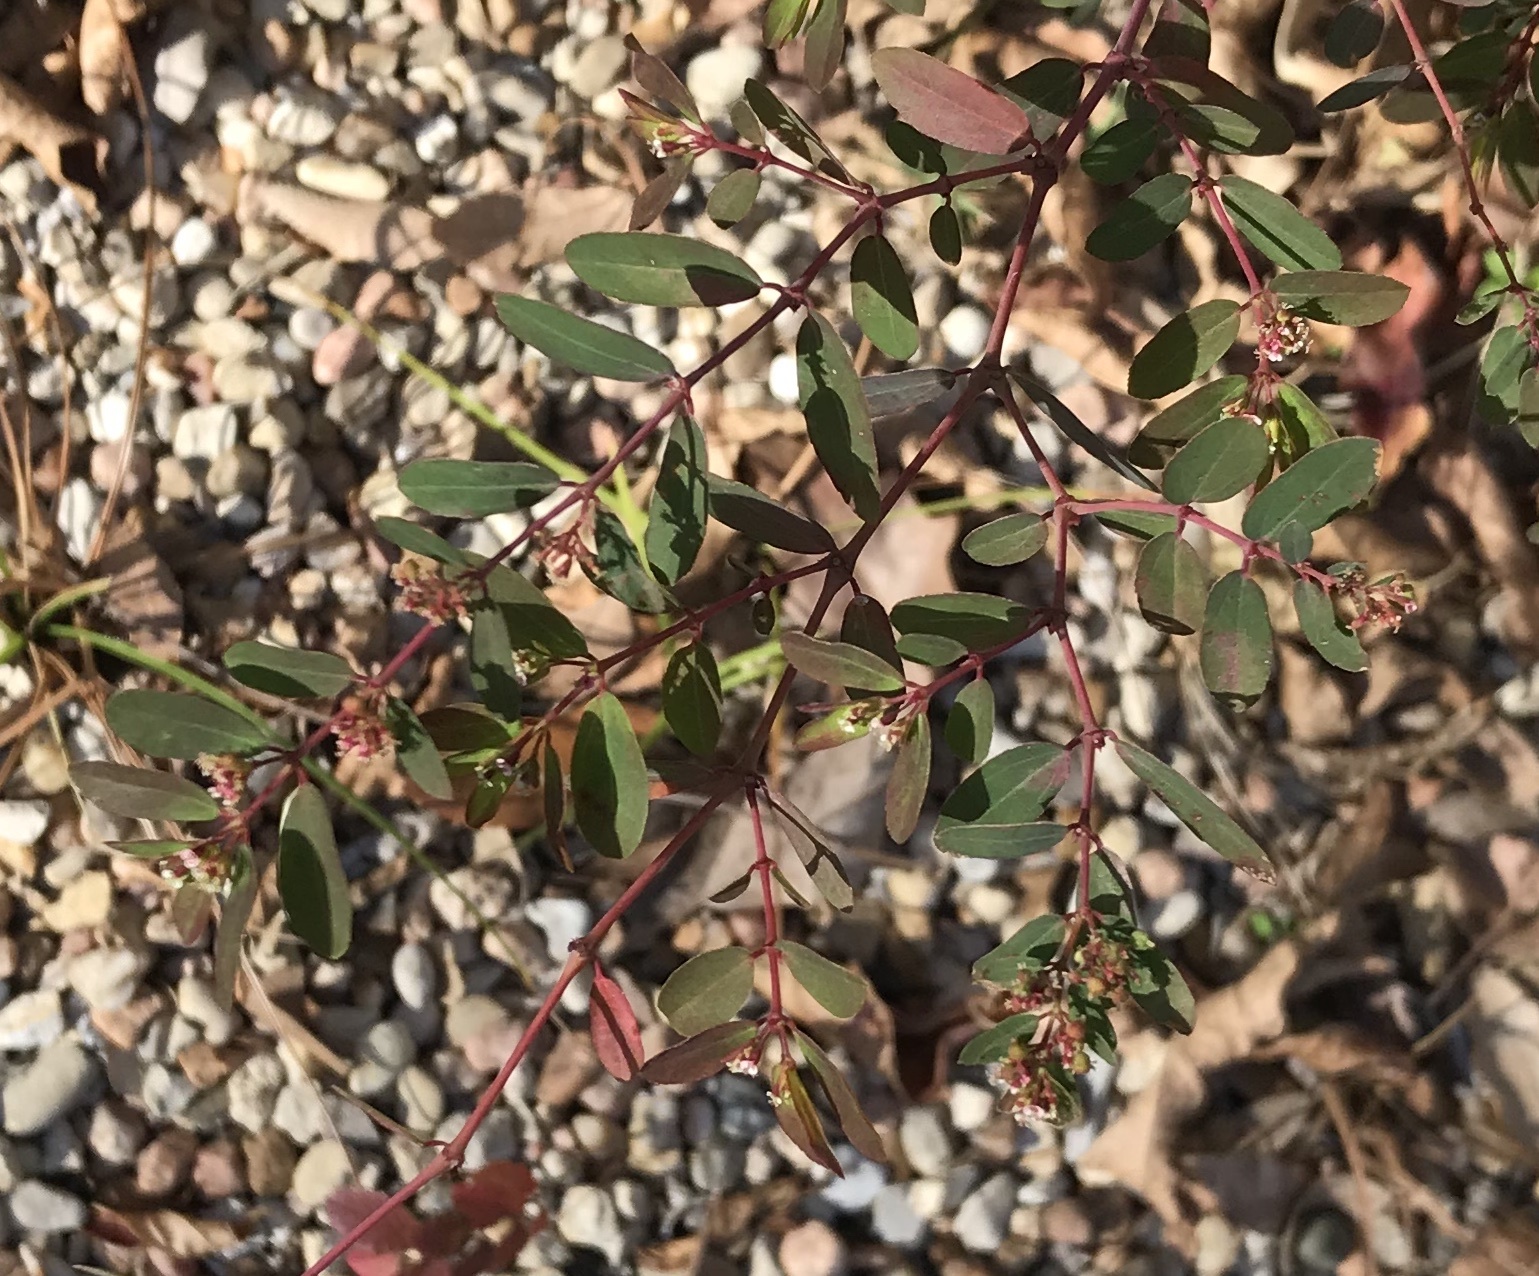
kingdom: Plantae
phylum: Tracheophyta
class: Magnoliopsida
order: Malpighiales
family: Euphorbiaceae
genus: Euphorbia
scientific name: Euphorbia hypericifolia
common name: Graceful sandmat
